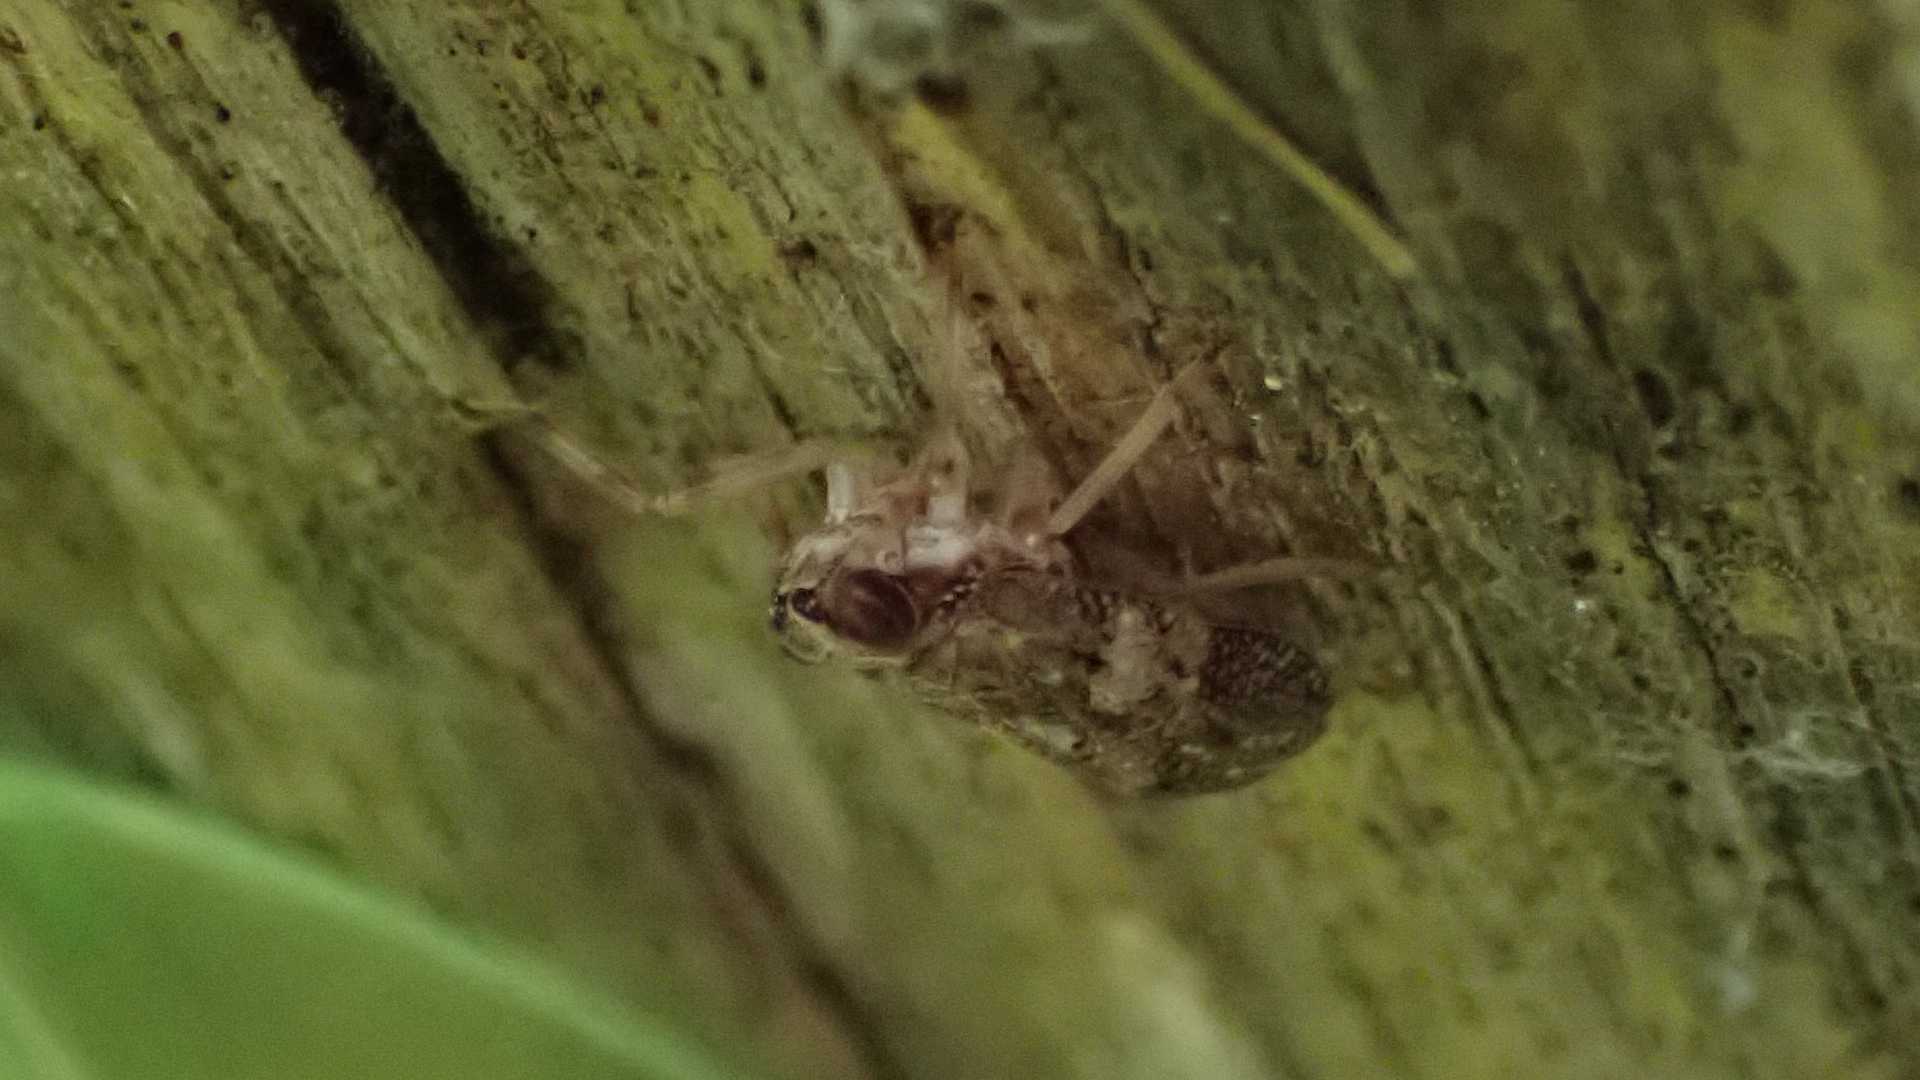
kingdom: Animalia
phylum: Arthropoda
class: Insecta
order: Hemiptera
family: Issidae
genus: Issus
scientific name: Issus coleoptratus
